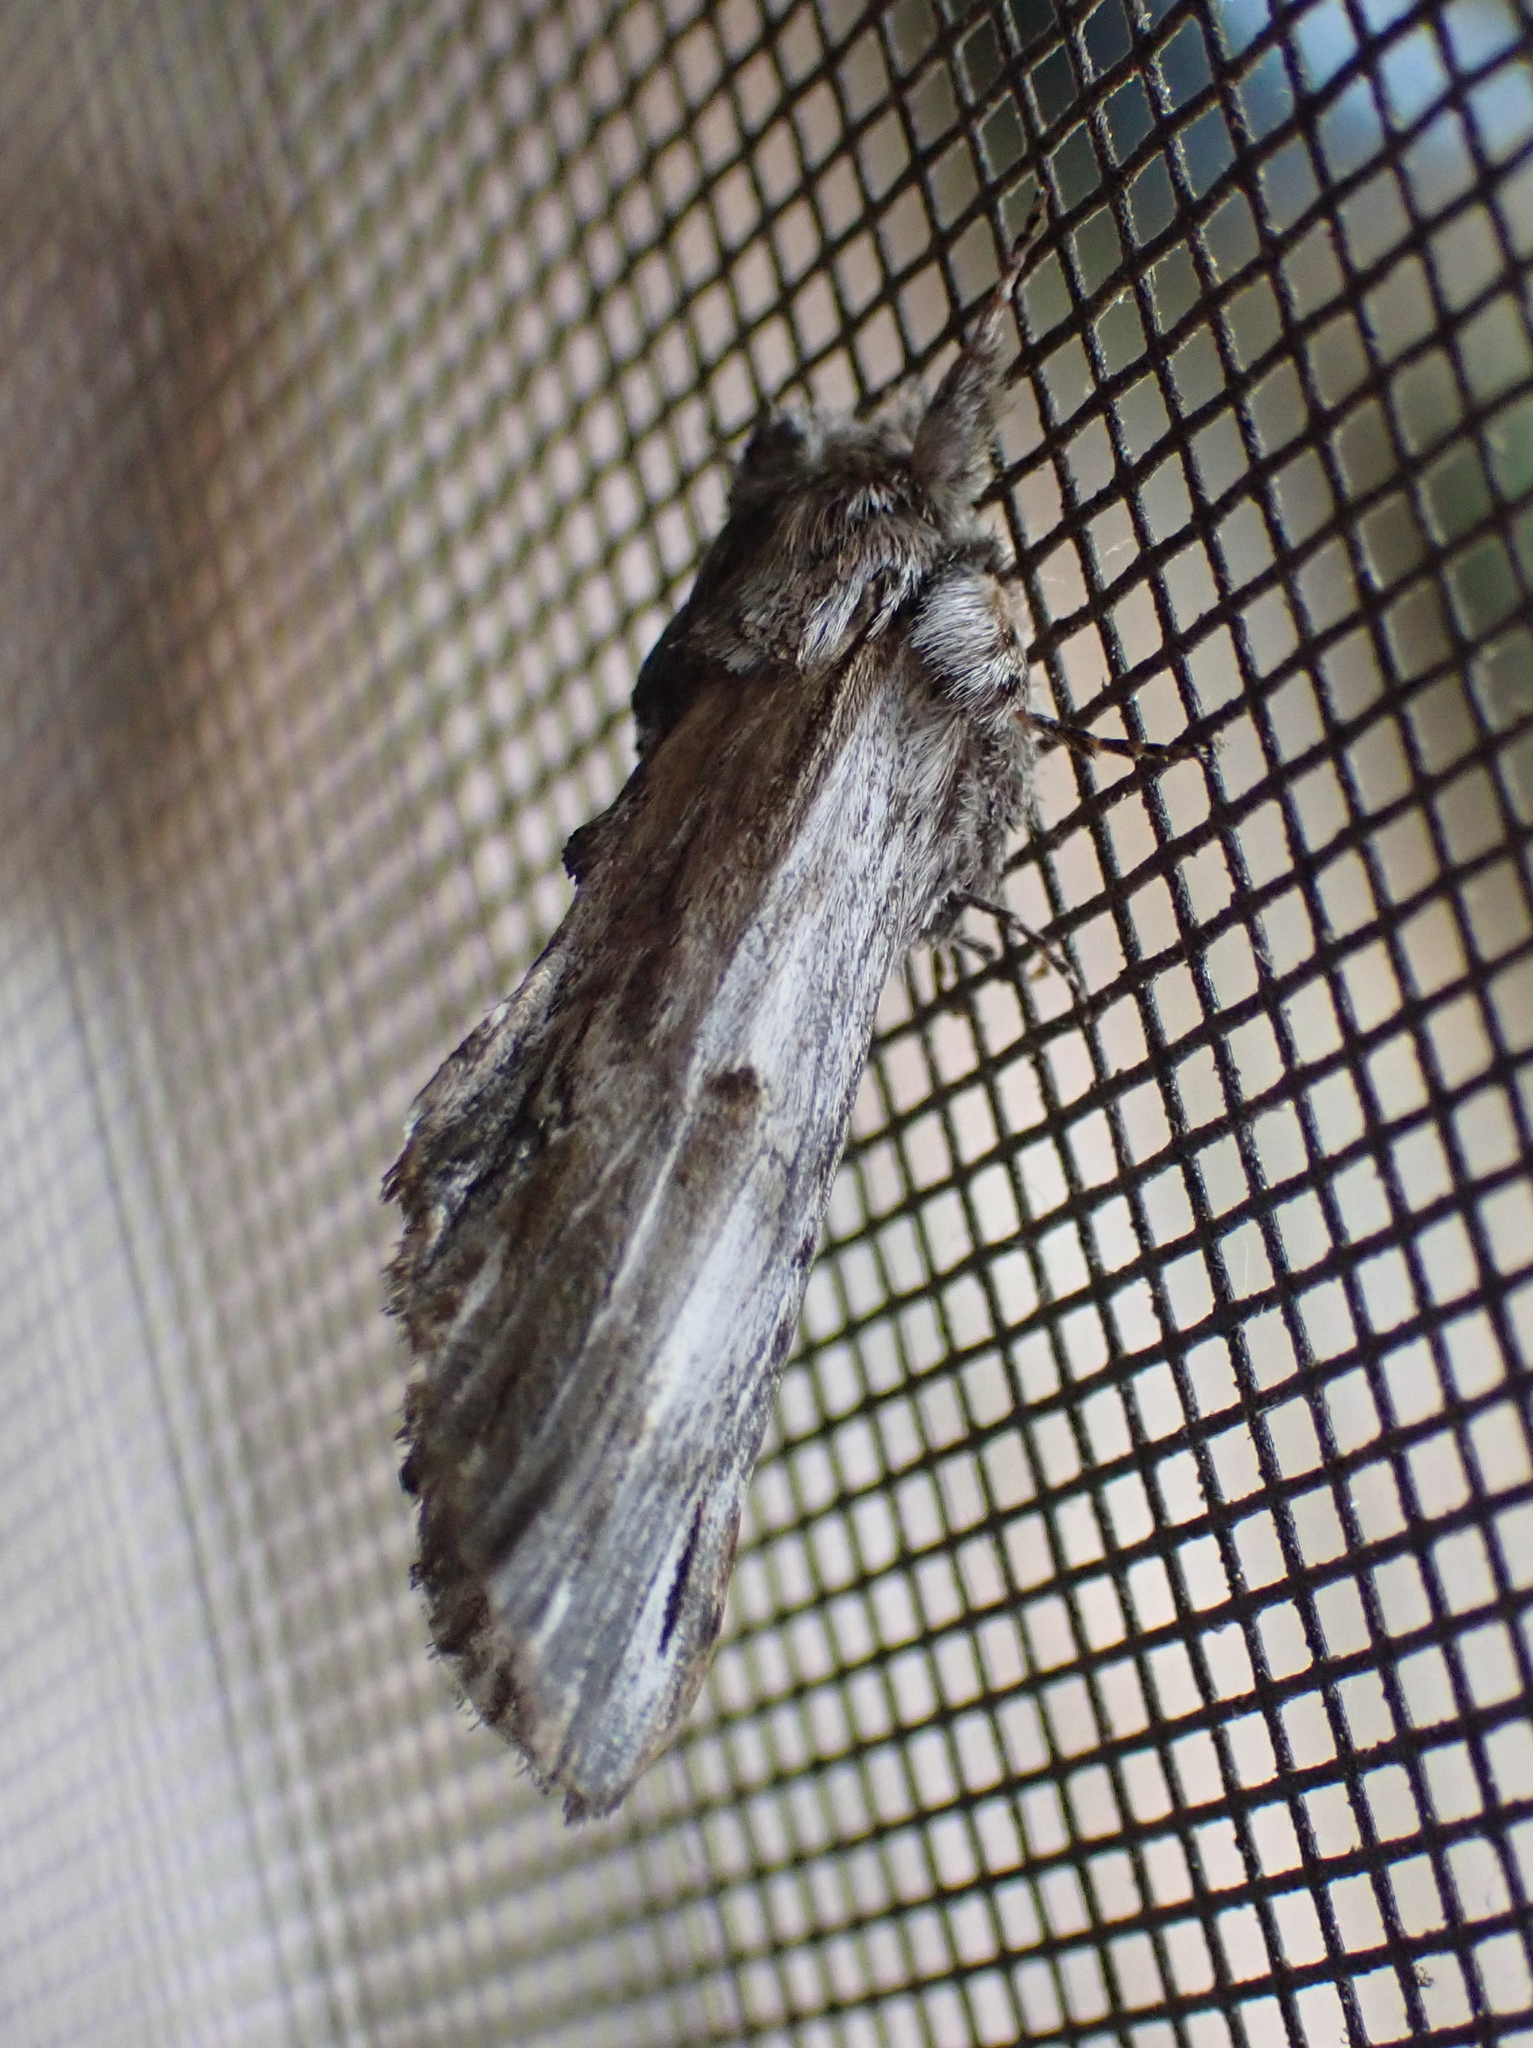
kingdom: Animalia
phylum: Arthropoda
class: Insecta
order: Lepidoptera
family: Notodontidae
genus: Oligocentria
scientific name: Oligocentria Ianassa lignicolor
